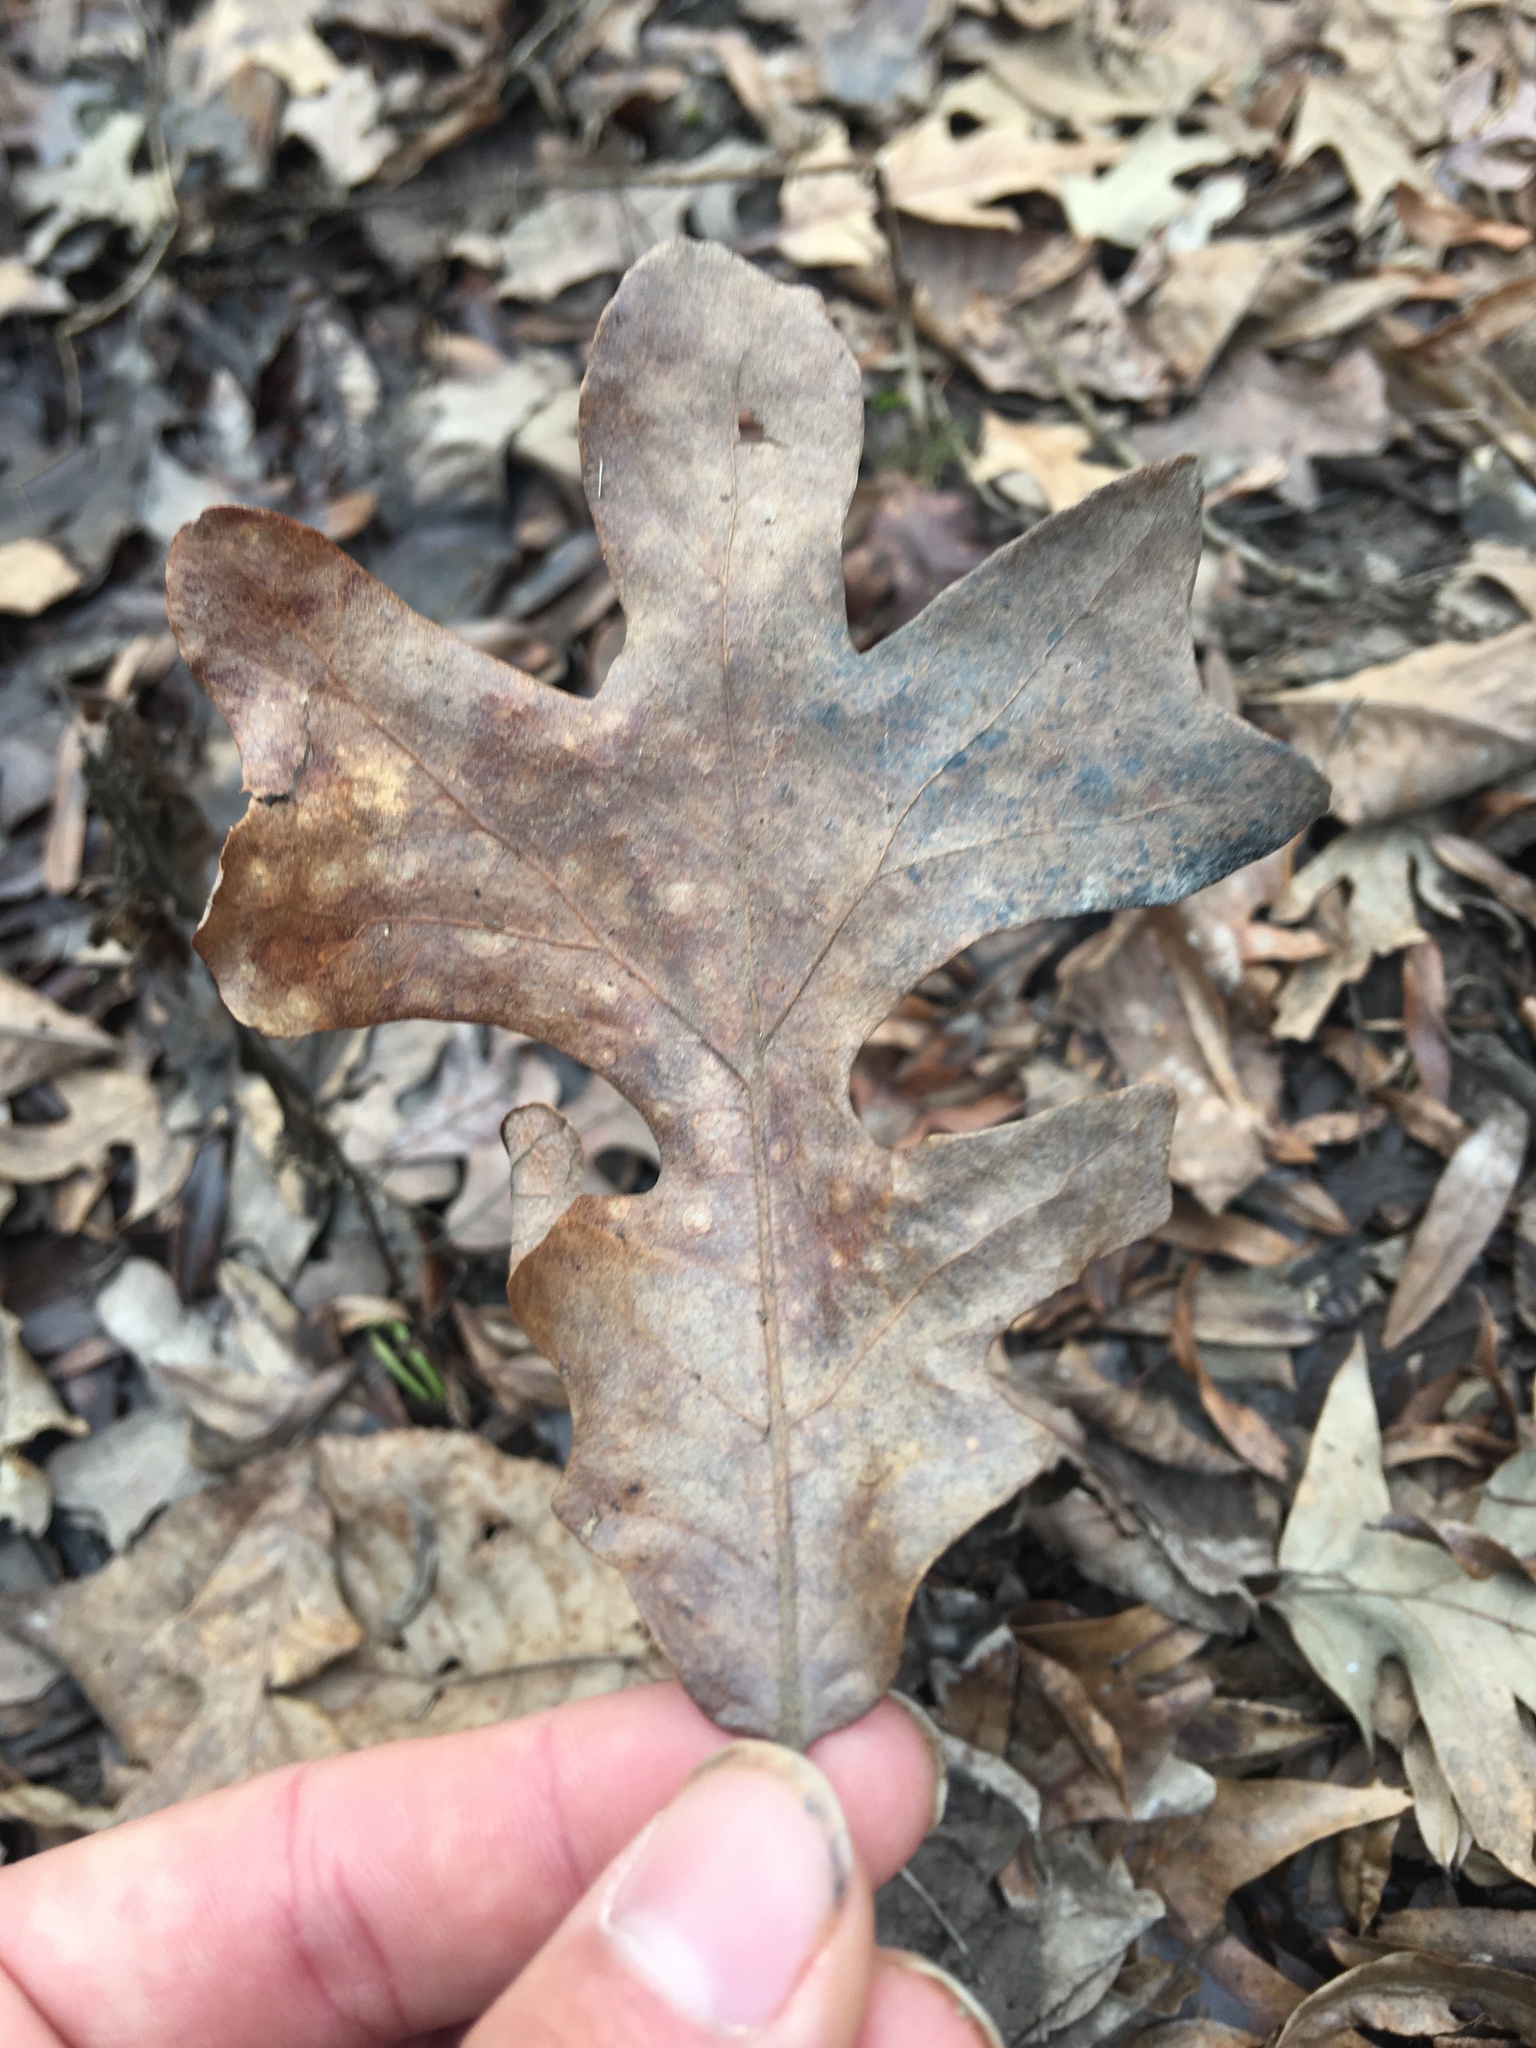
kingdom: Plantae
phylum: Tracheophyta
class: Magnoliopsida
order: Fagales
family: Fagaceae
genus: Quercus
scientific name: Quercus stellata
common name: Post oak
